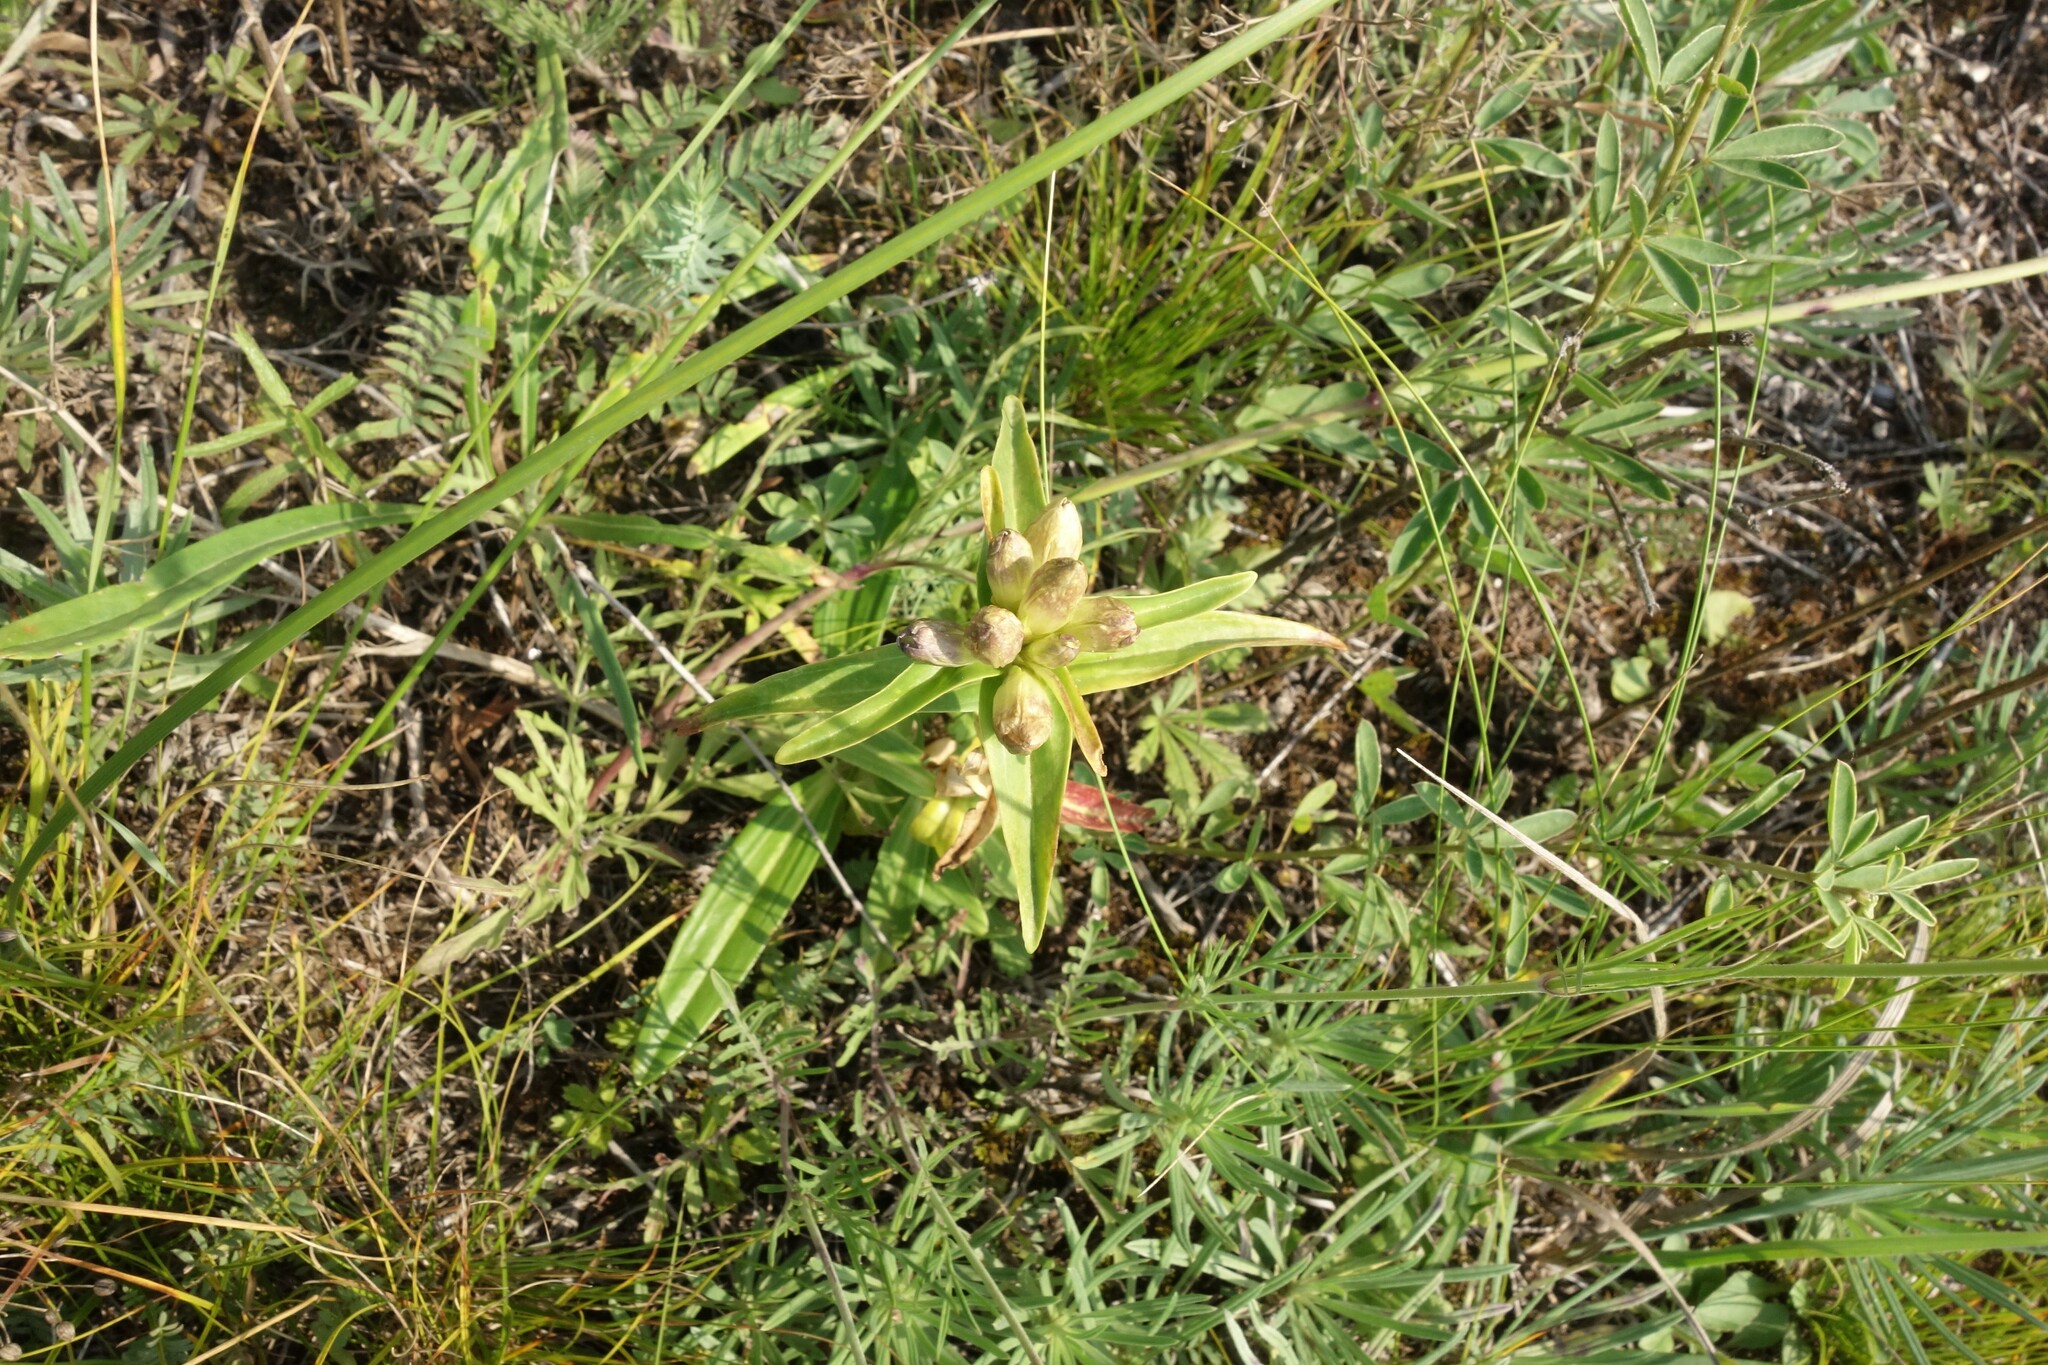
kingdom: Plantae
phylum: Tracheophyta
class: Magnoliopsida
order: Gentianales
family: Gentianaceae
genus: Gentiana
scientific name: Gentiana cruciata
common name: Cross gentian
